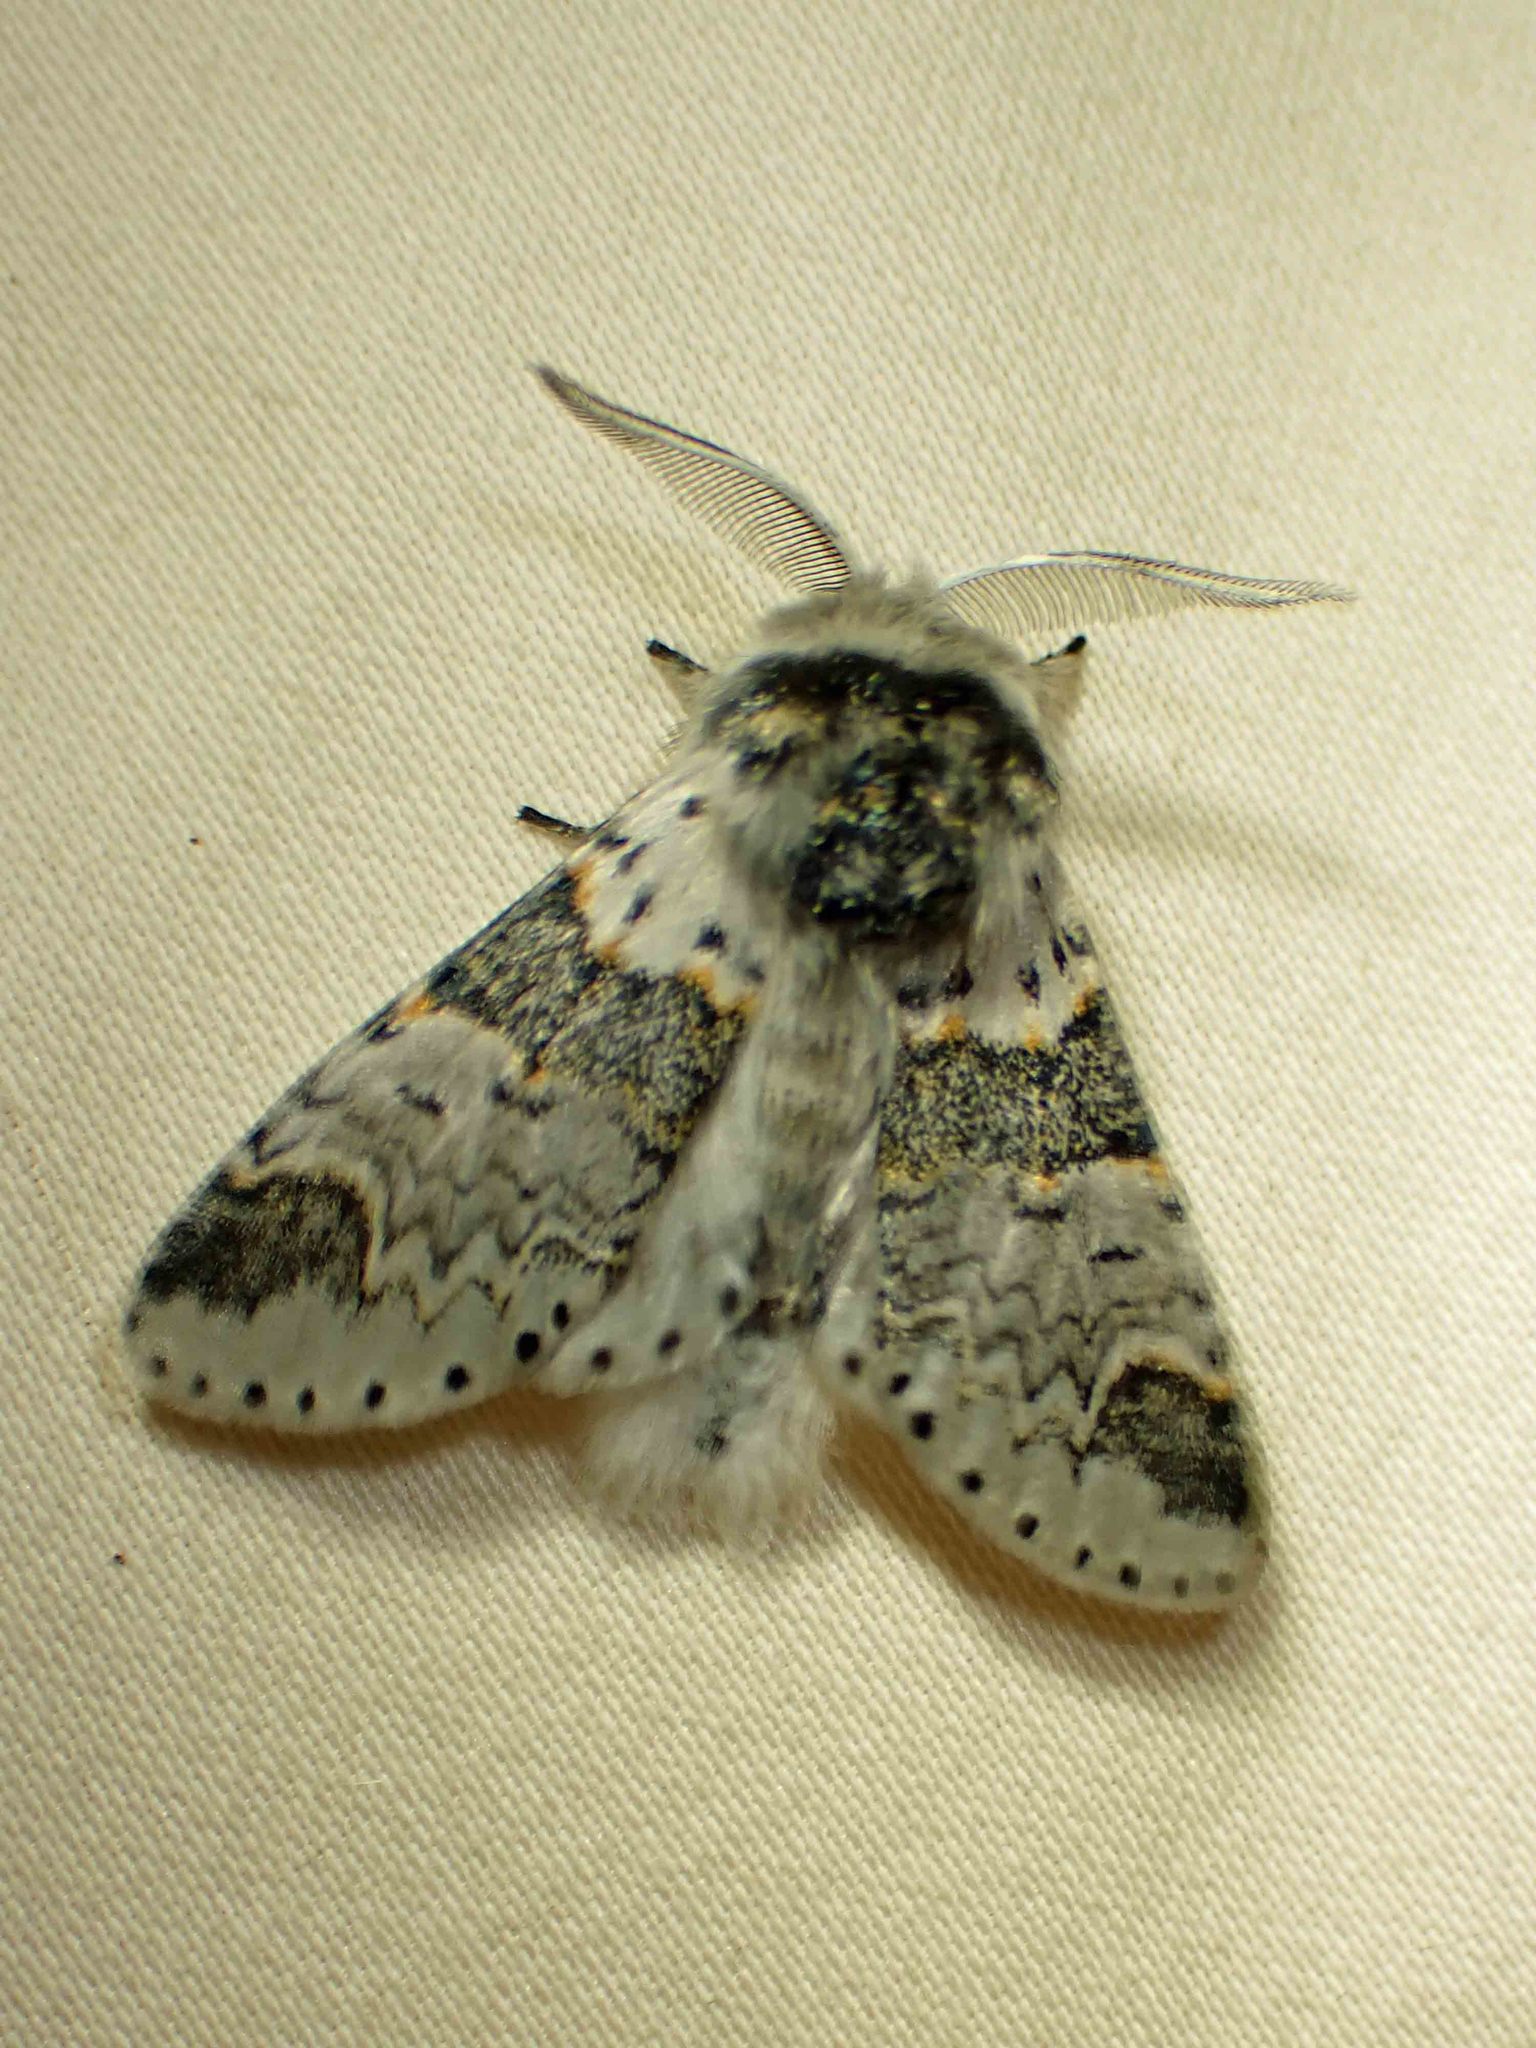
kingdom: Animalia
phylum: Arthropoda
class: Insecta
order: Lepidoptera
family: Notodontidae
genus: Furcula
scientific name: Furcula occidentalis
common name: Western furcula moth
